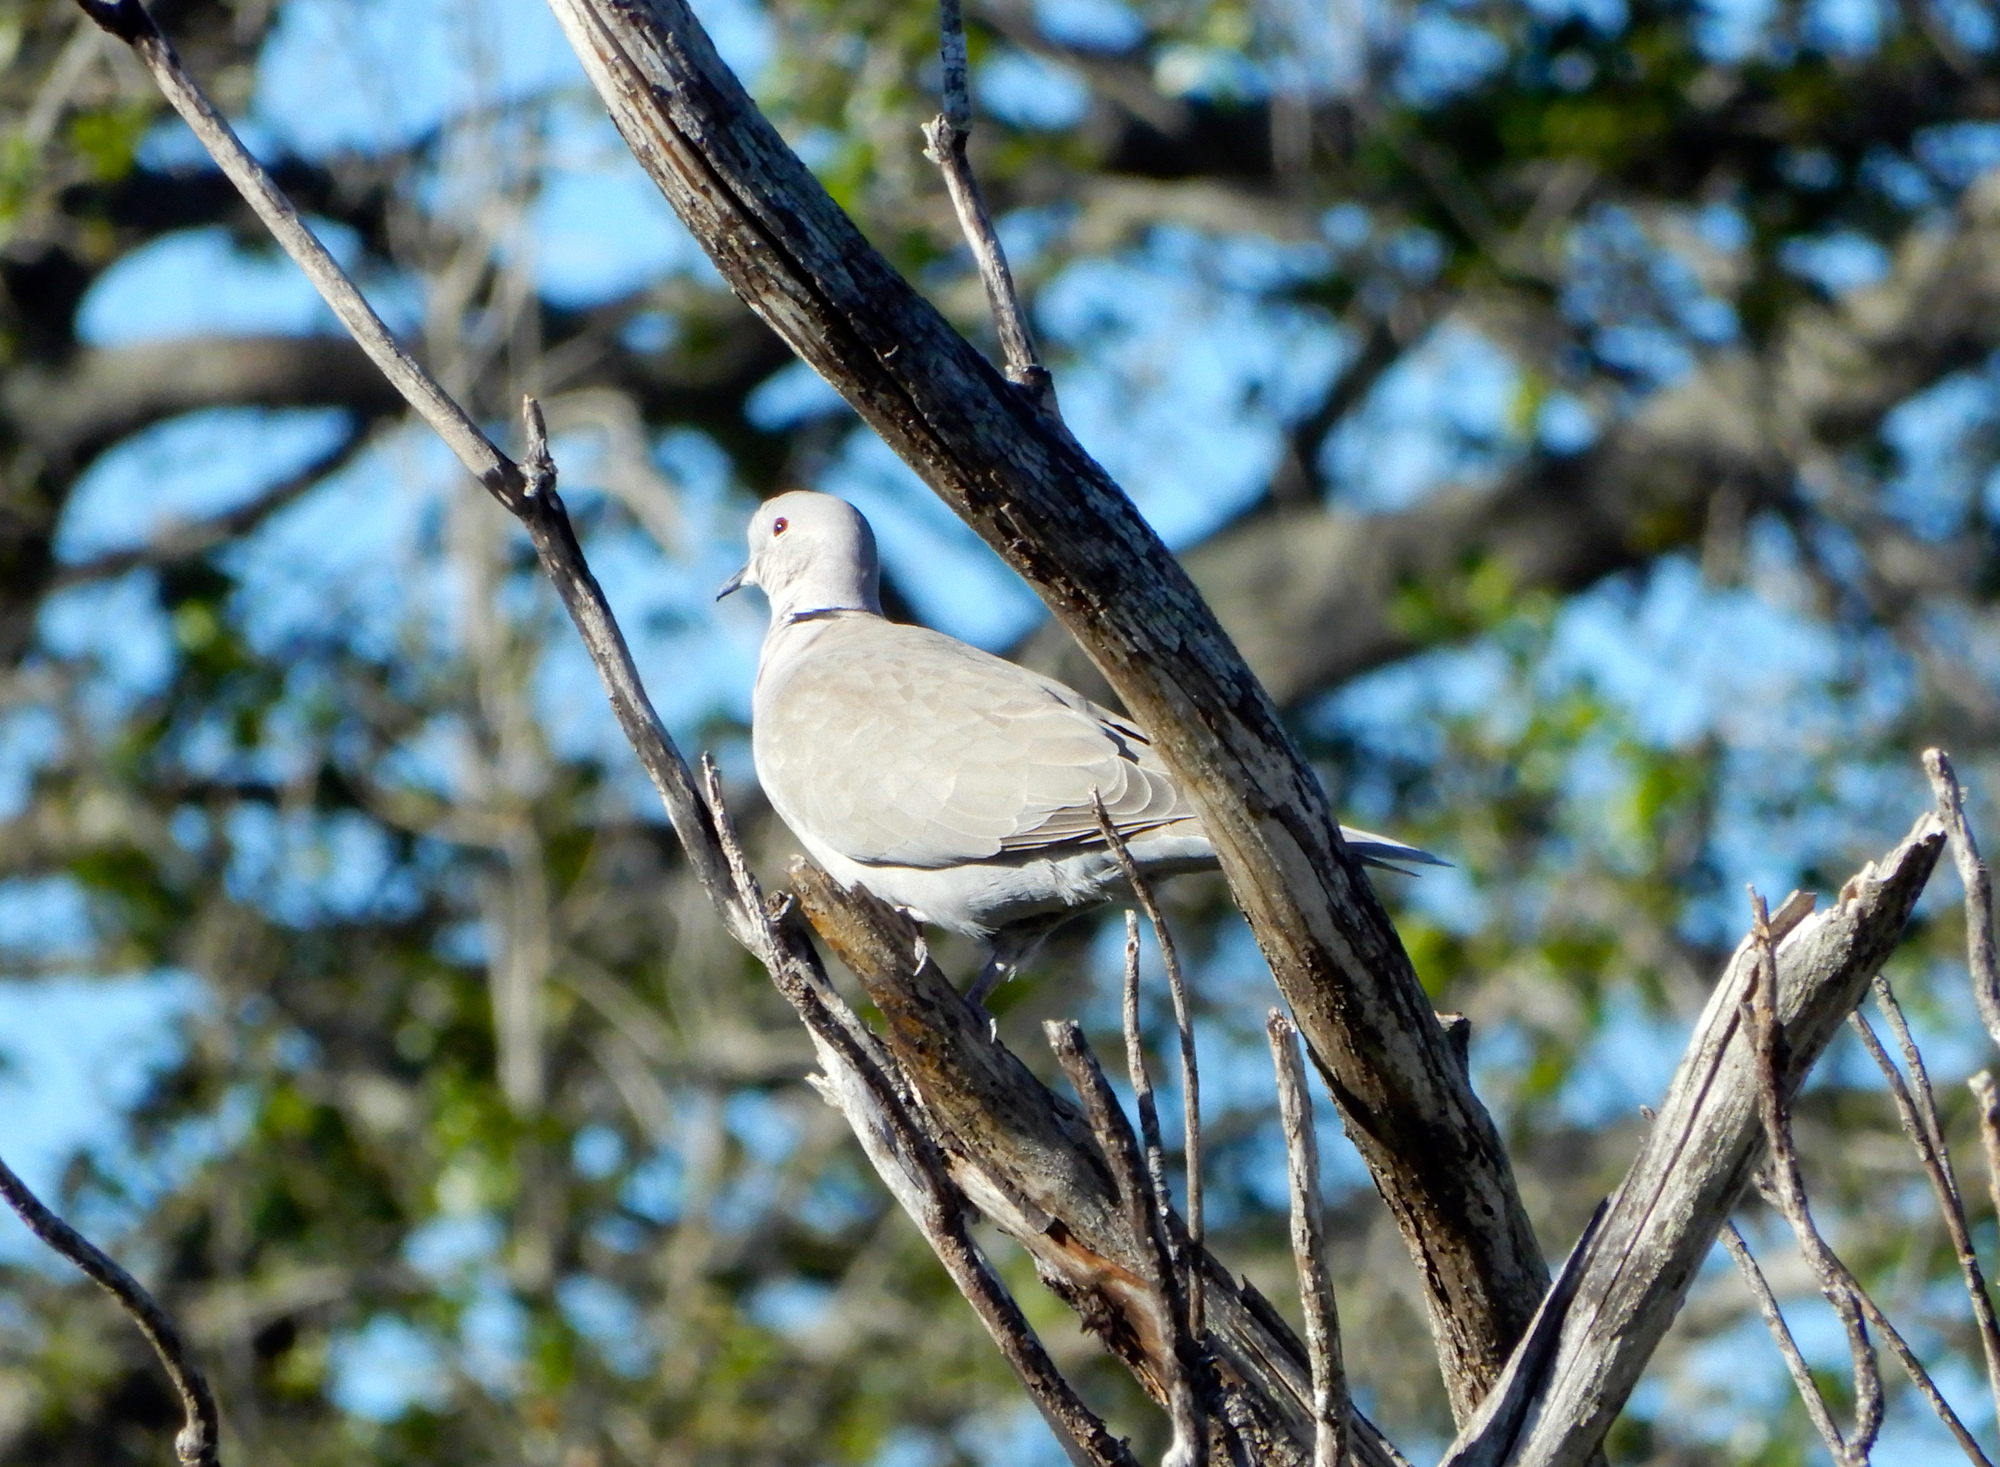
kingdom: Animalia
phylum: Chordata
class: Aves
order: Columbiformes
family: Columbidae
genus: Streptopelia
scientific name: Streptopelia decaocto
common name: Eurasian collared dove
